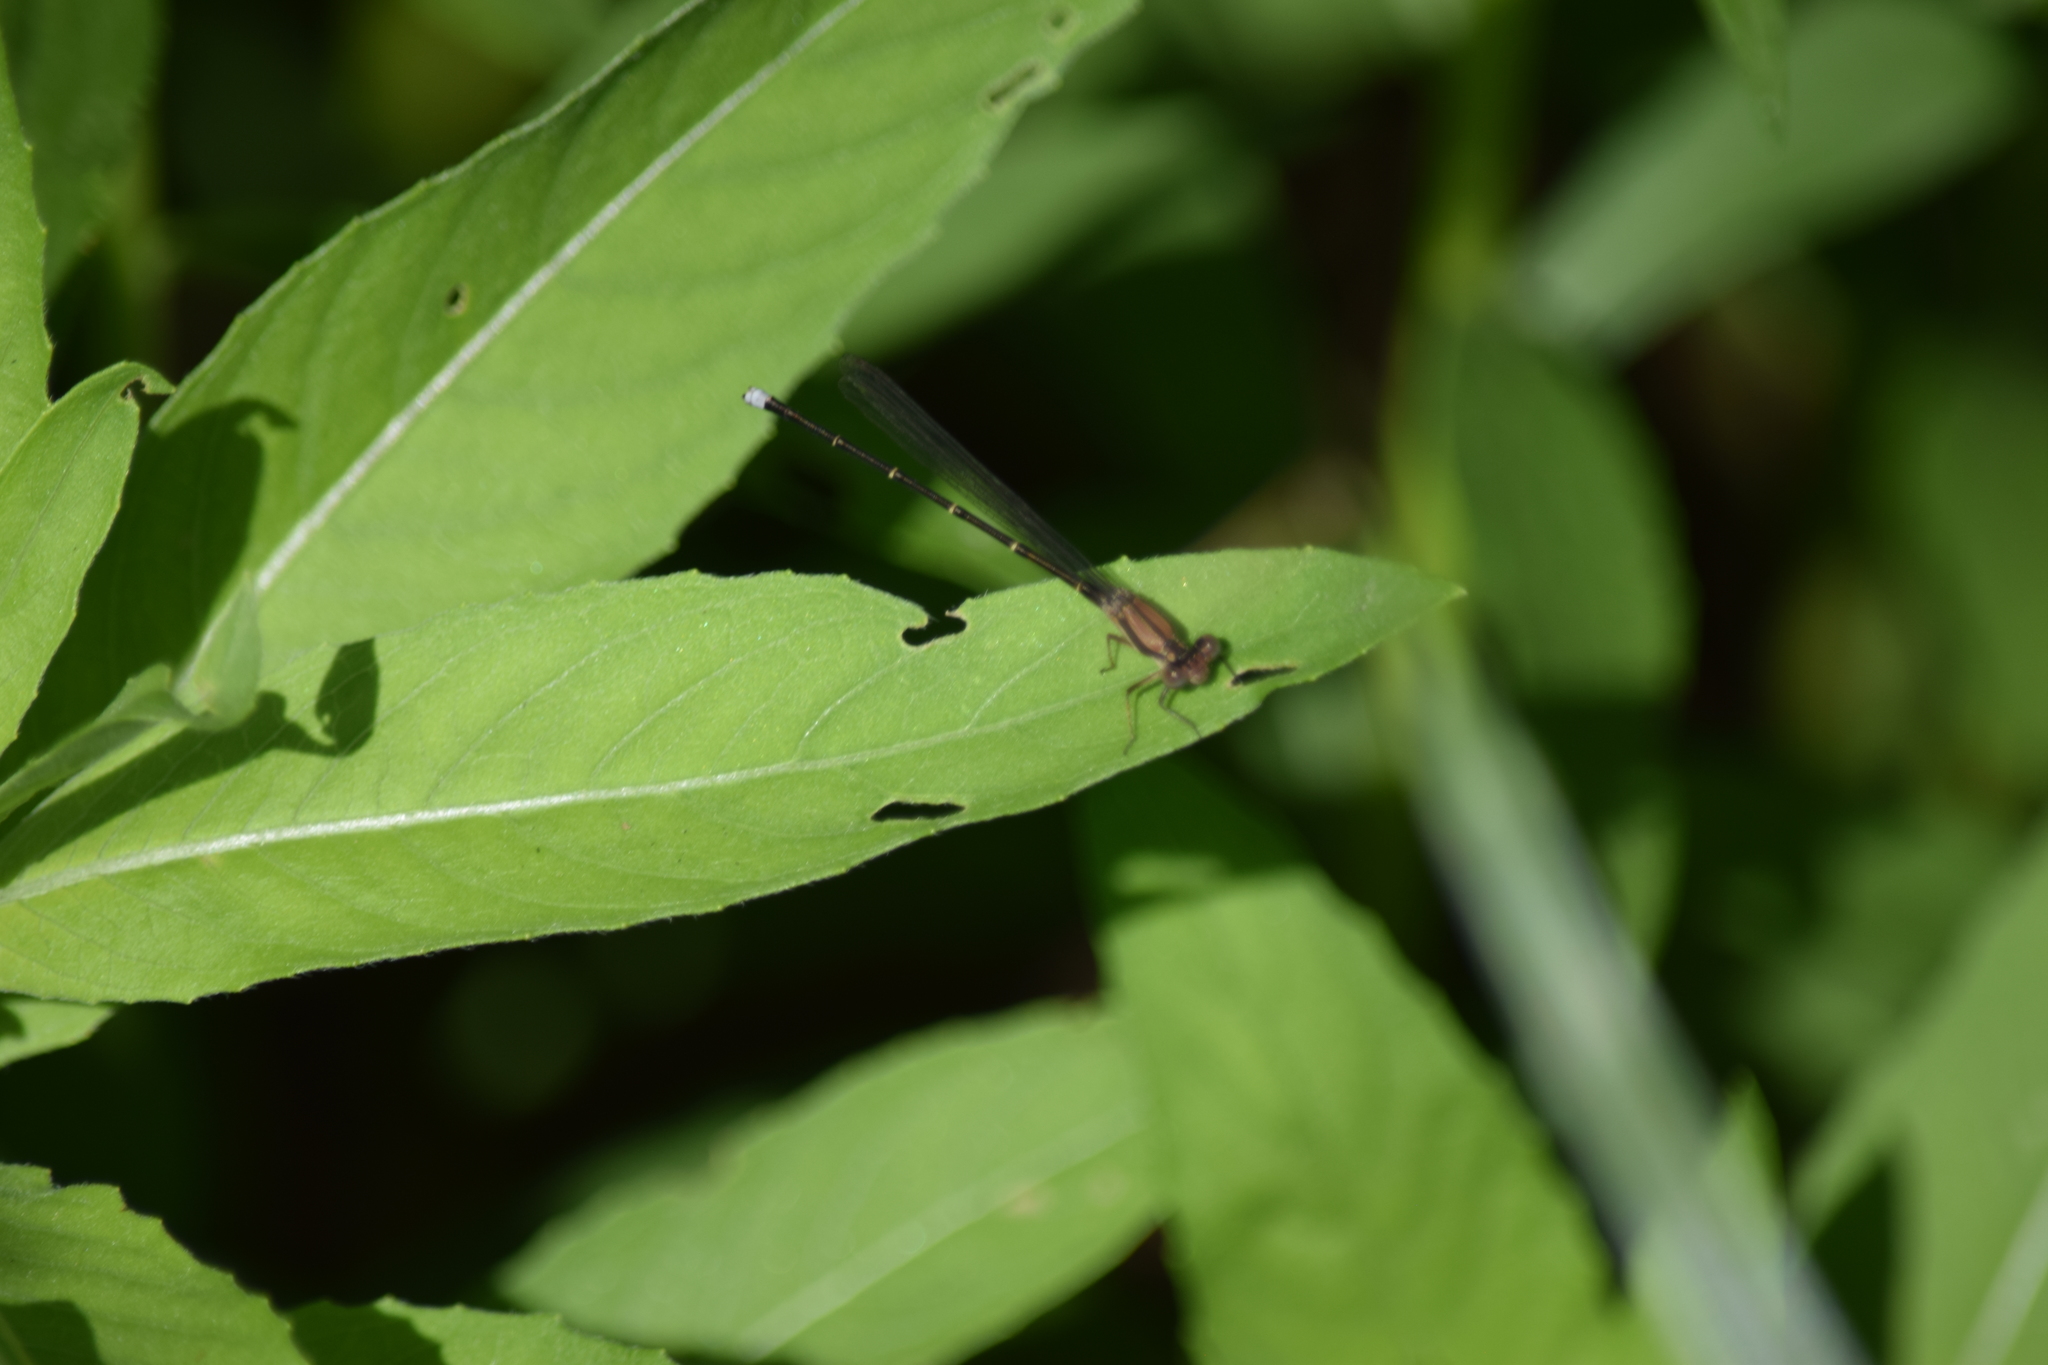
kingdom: Animalia
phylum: Arthropoda
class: Insecta
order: Odonata
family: Coenagrionidae
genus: Argia
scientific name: Argia tibialis
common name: Blue-tipped dancer
